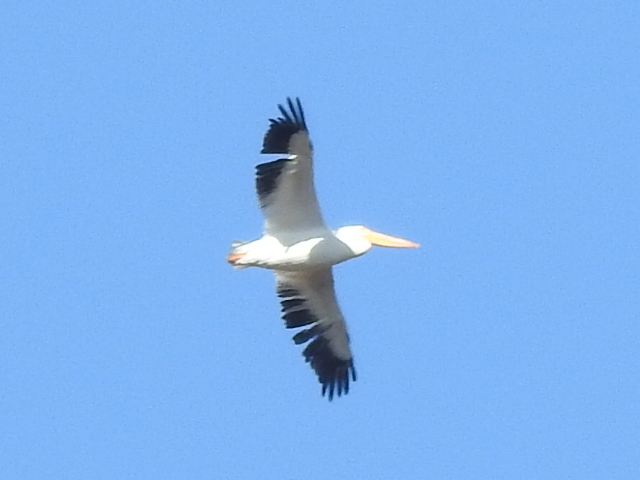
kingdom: Animalia
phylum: Chordata
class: Aves
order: Pelecaniformes
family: Pelecanidae
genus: Pelecanus
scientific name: Pelecanus erythrorhynchos
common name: American white pelican
